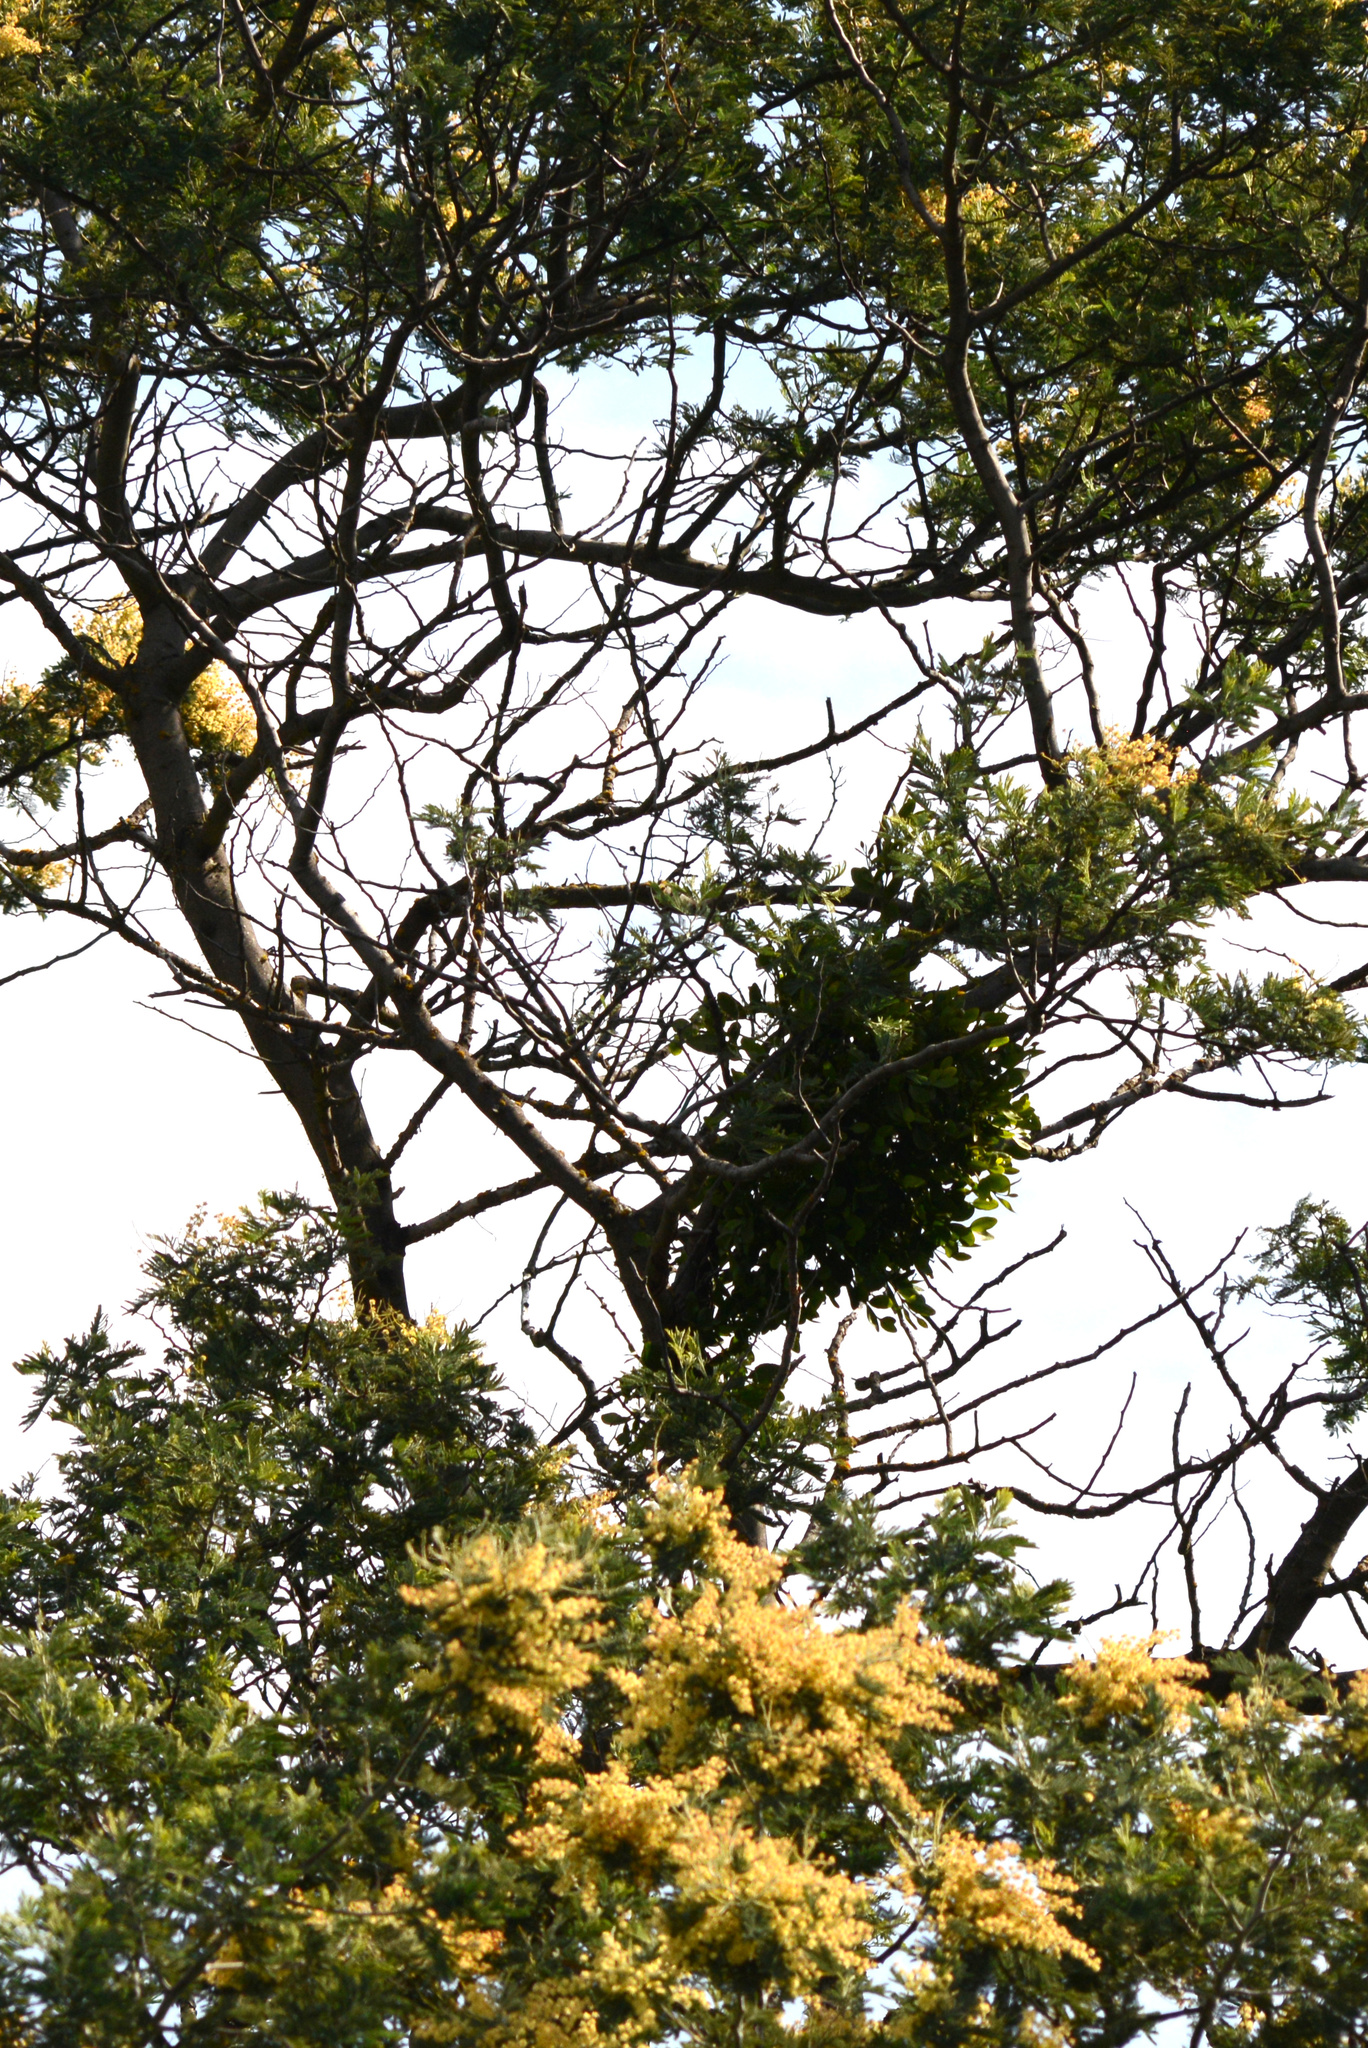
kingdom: Plantae
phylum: Tracheophyta
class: Magnoliopsida
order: Santalales
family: Loranthaceae
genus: Ileostylus
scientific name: Ileostylus micranthus
